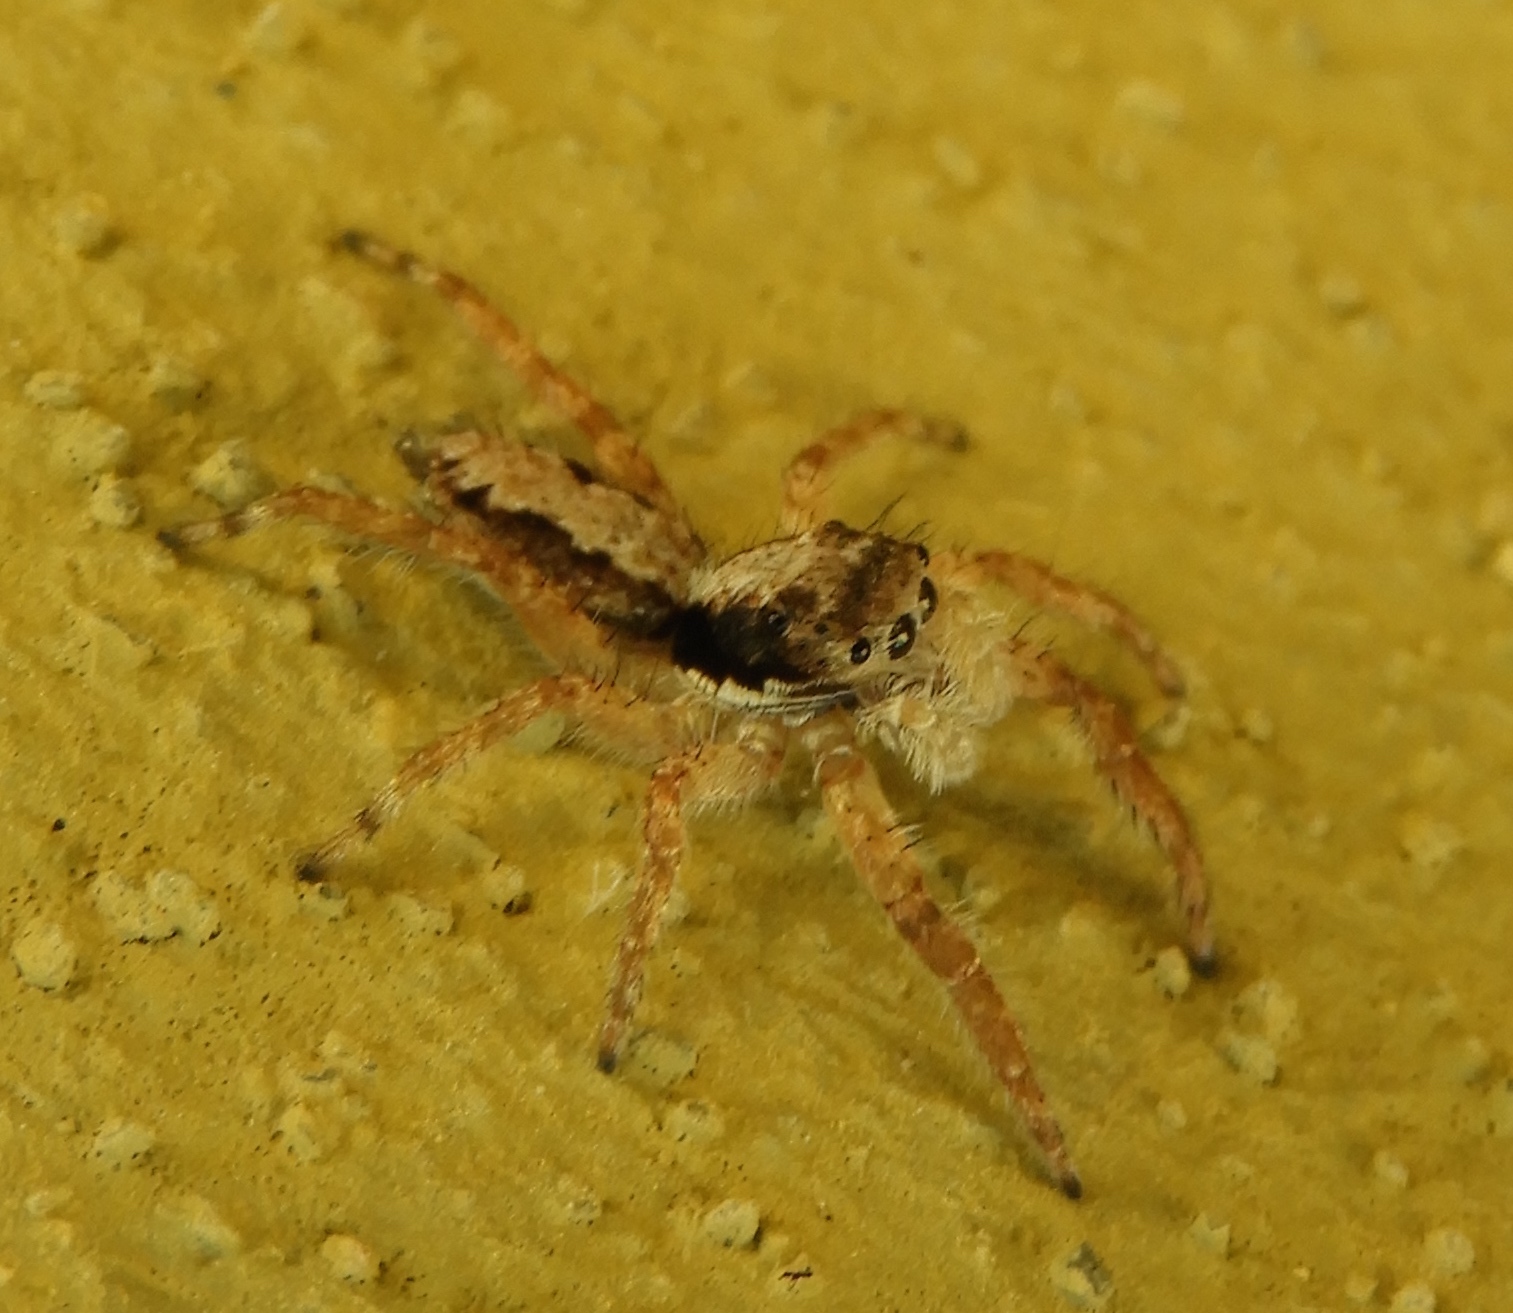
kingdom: Animalia
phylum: Arthropoda
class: Arachnida
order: Araneae
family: Salticidae
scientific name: Salticidae
